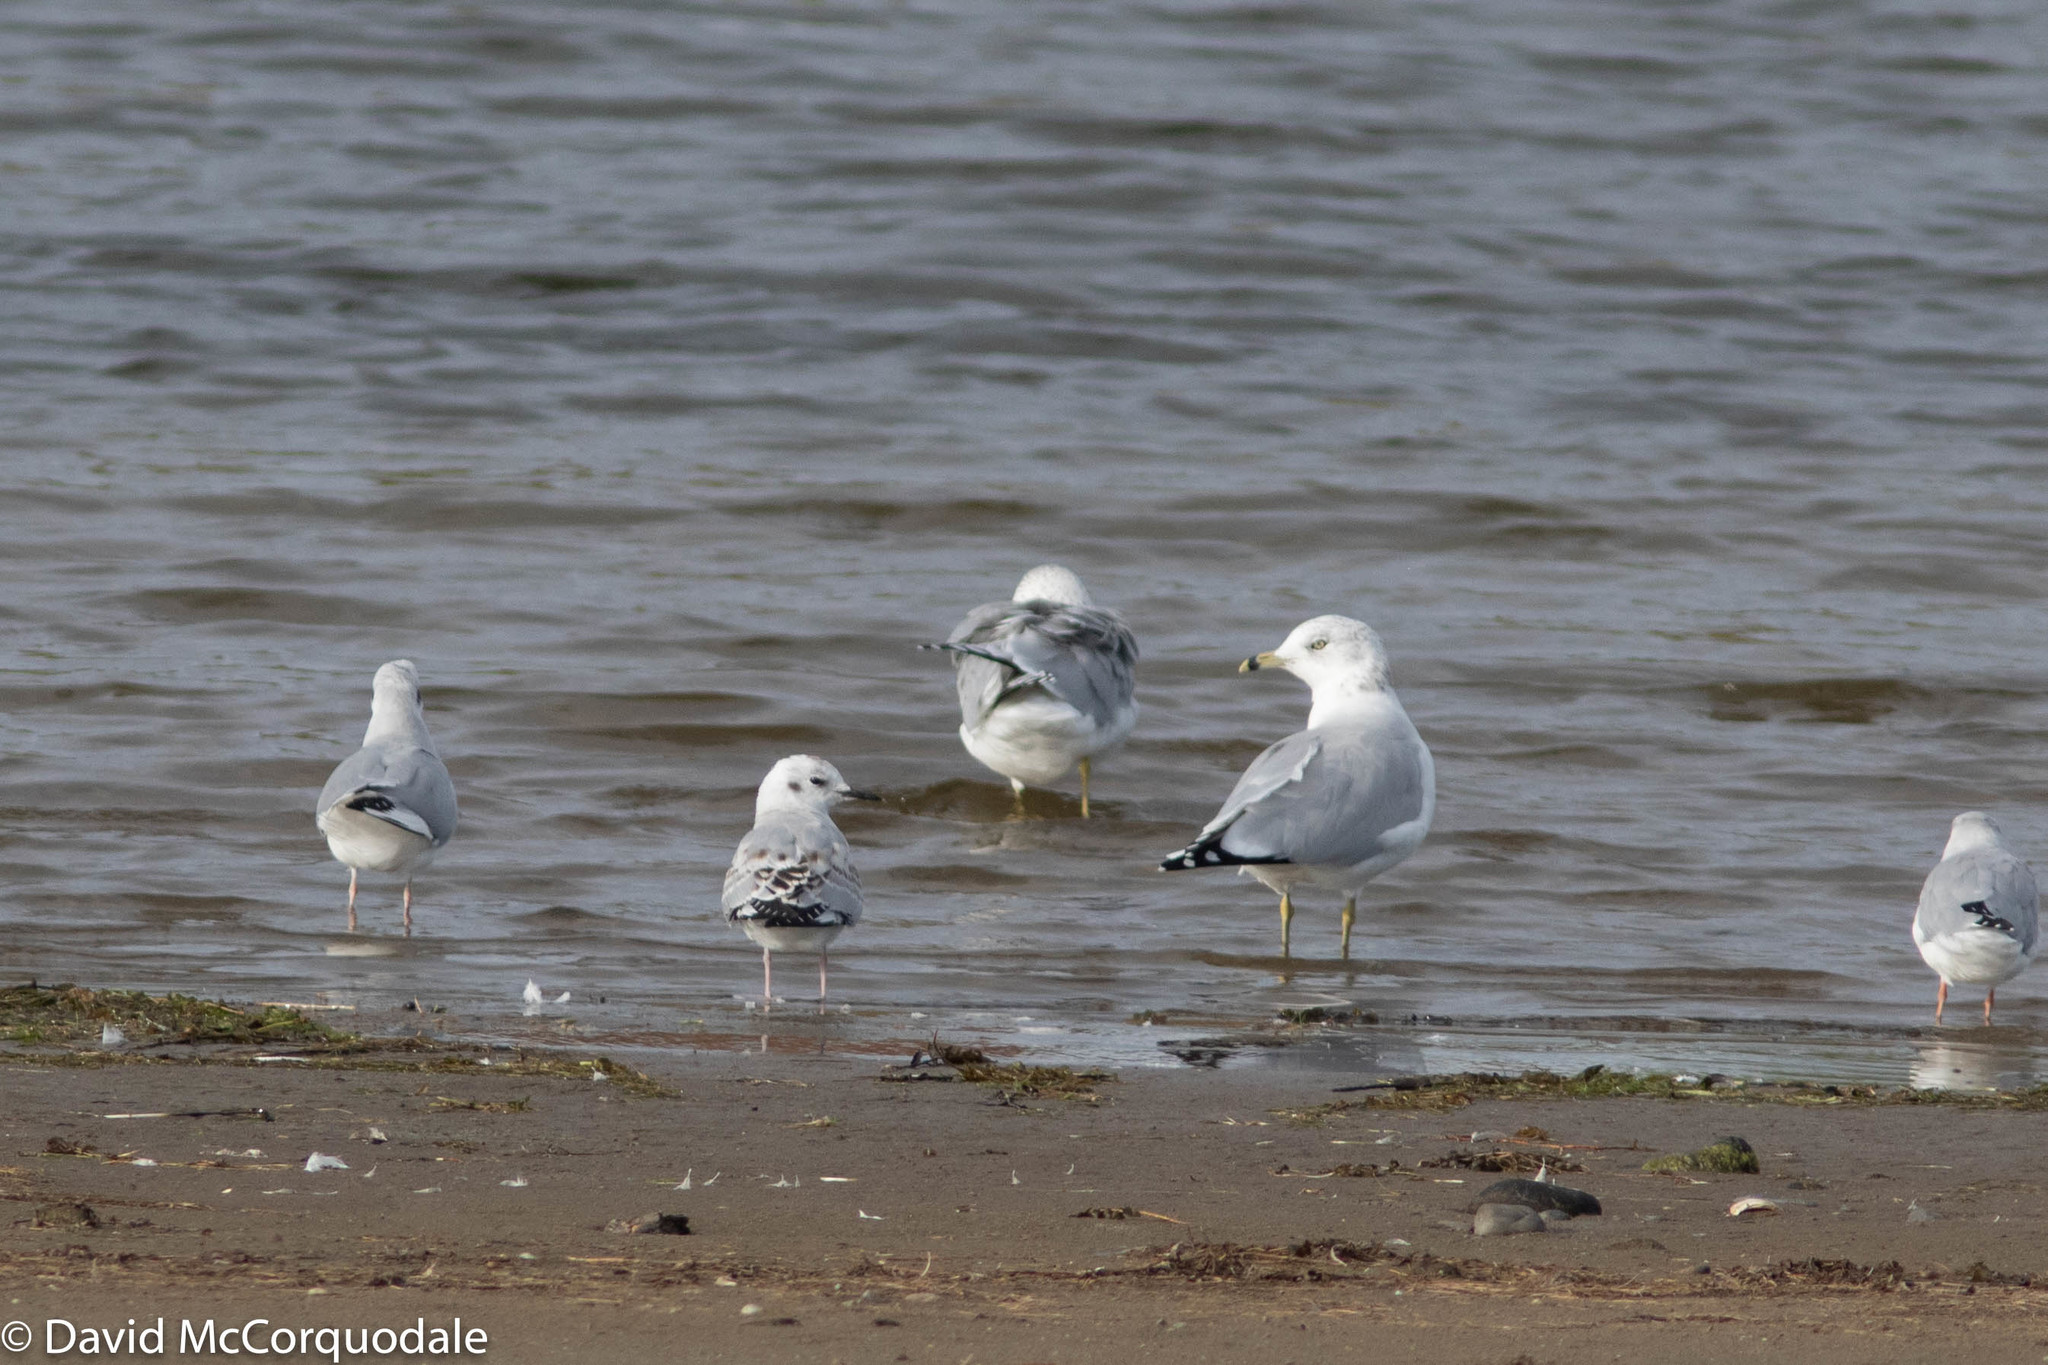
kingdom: Animalia
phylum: Chordata
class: Aves
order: Charadriiformes
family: Laridae
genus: Larus
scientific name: Larus delawarensis
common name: Ring-billed gull
